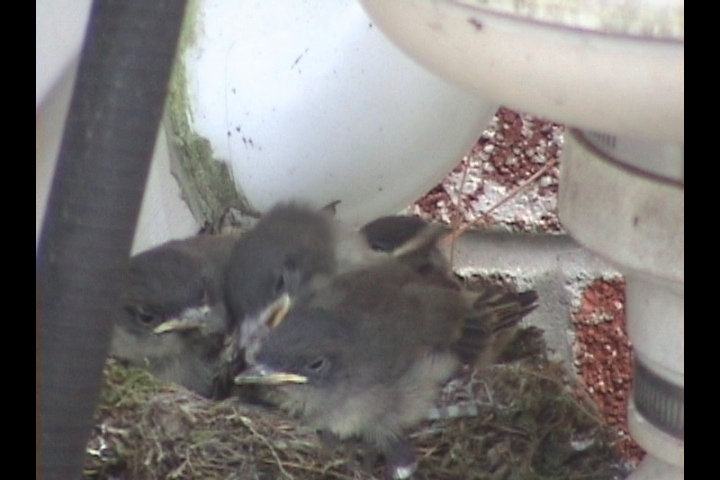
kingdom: Animalia
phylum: Chordata
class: Aves
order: Passeriformes
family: Tyrannidae
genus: Sayornis
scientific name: Sayornis phoebe
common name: Eastern phoebe
